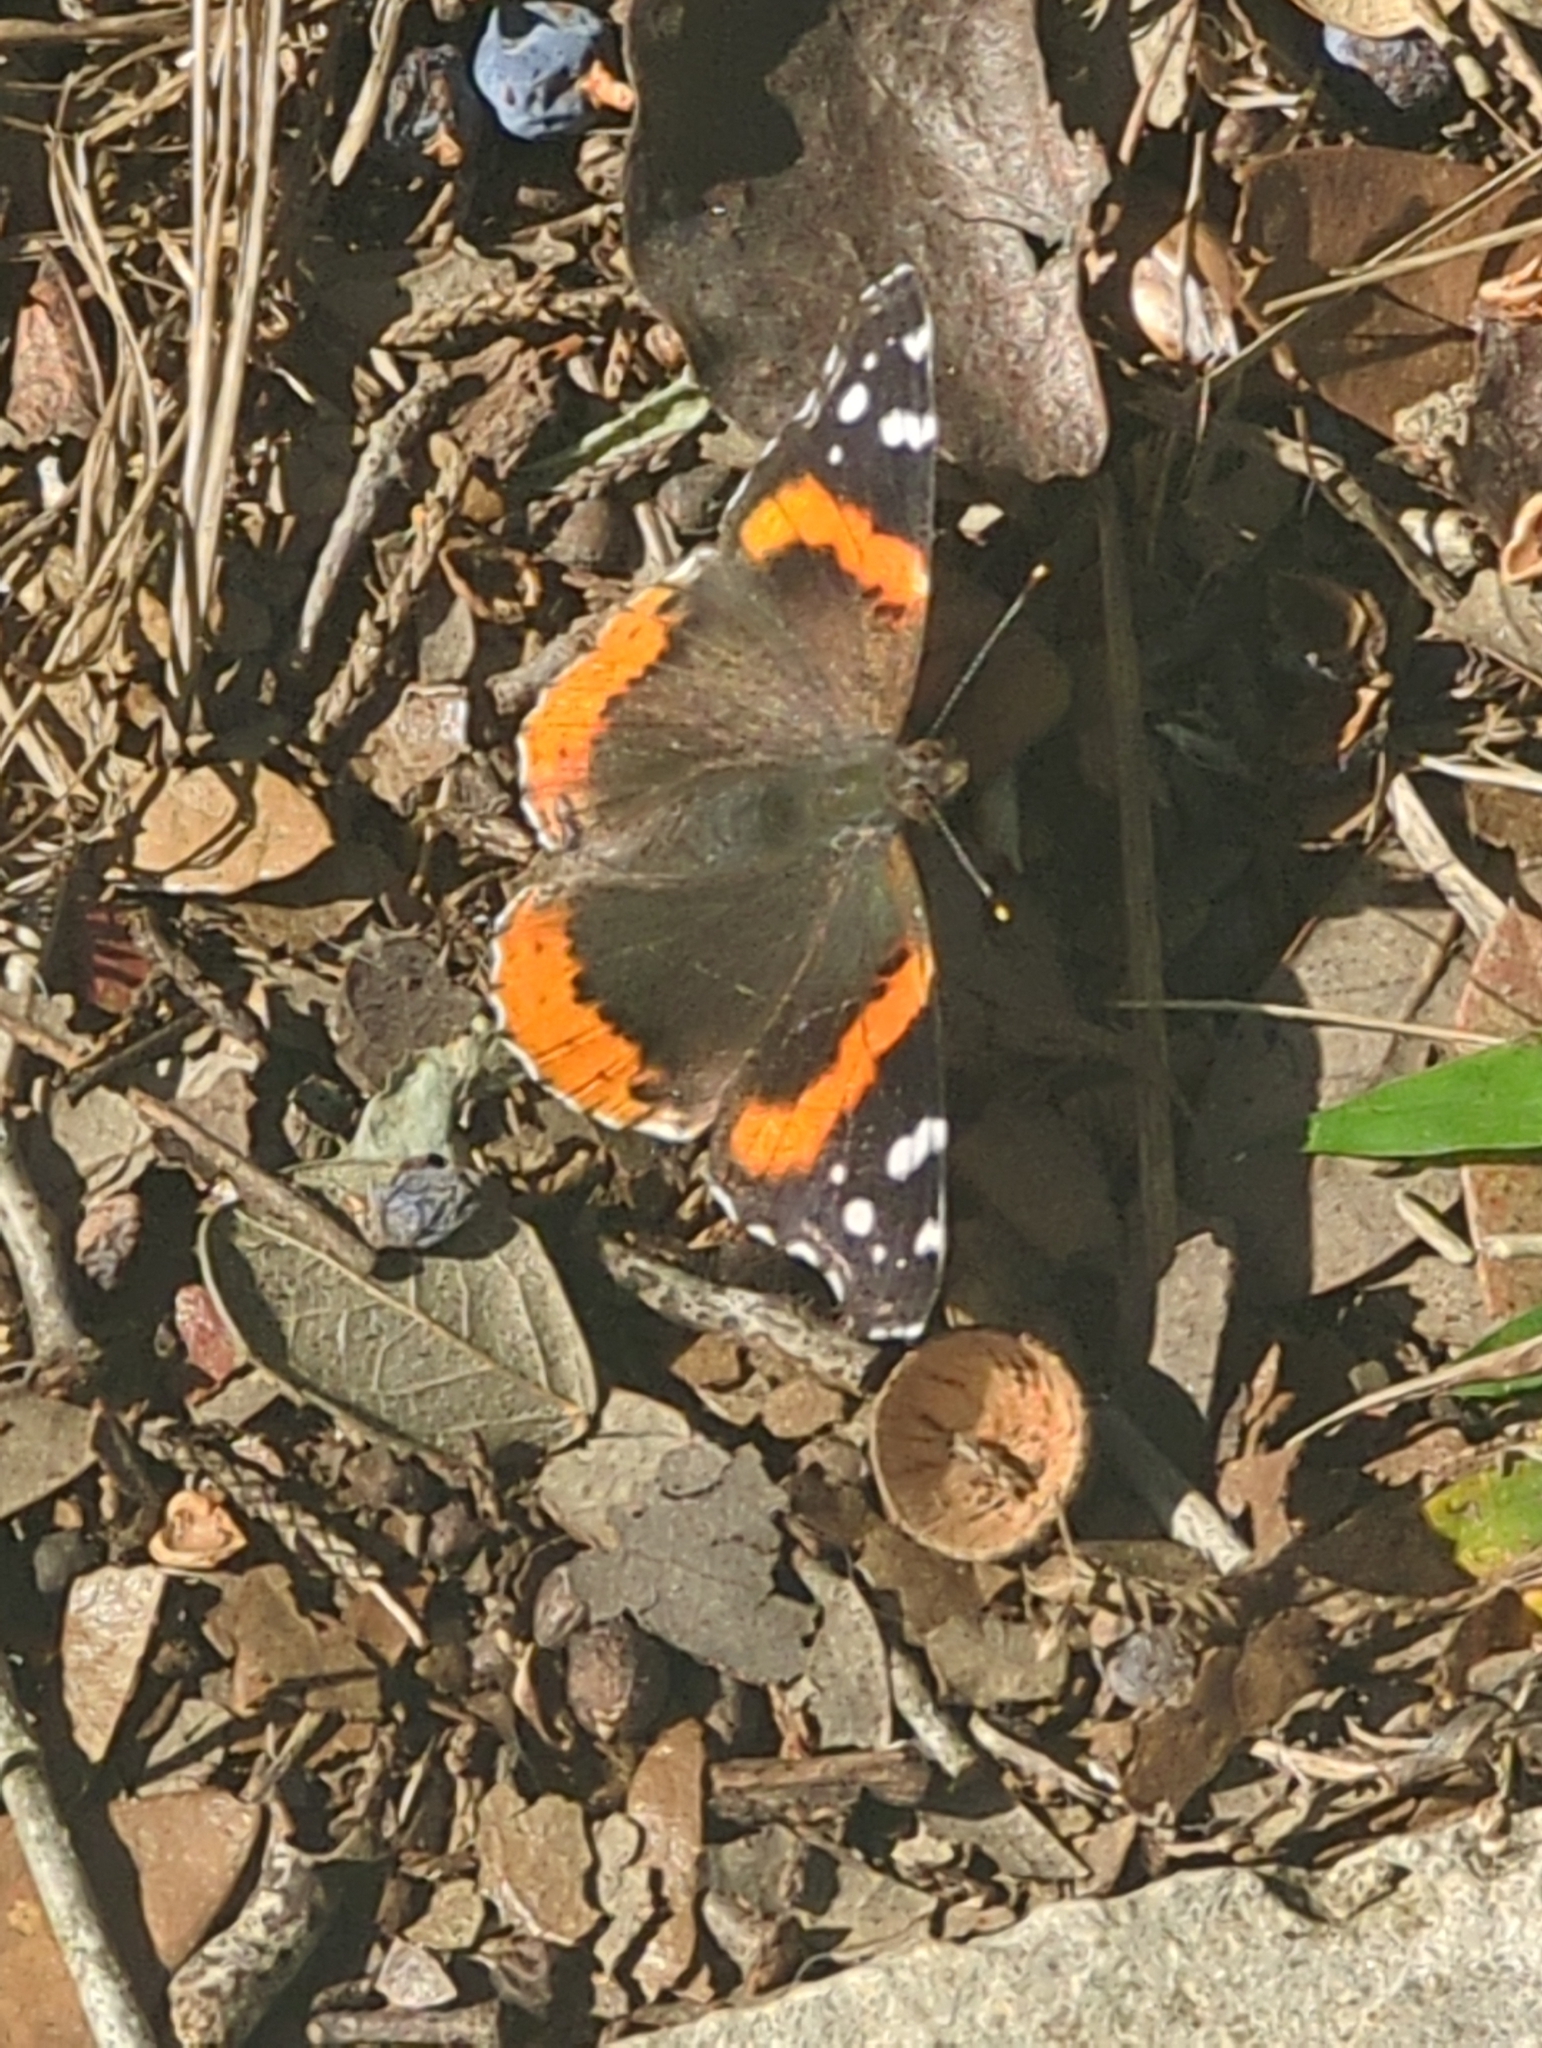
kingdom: Animalia
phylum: Arthropoda
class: Insecta
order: Lepidoptera
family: Nymphalidae
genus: Vanessa
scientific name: Vanessa atalanta
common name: Red admiral
